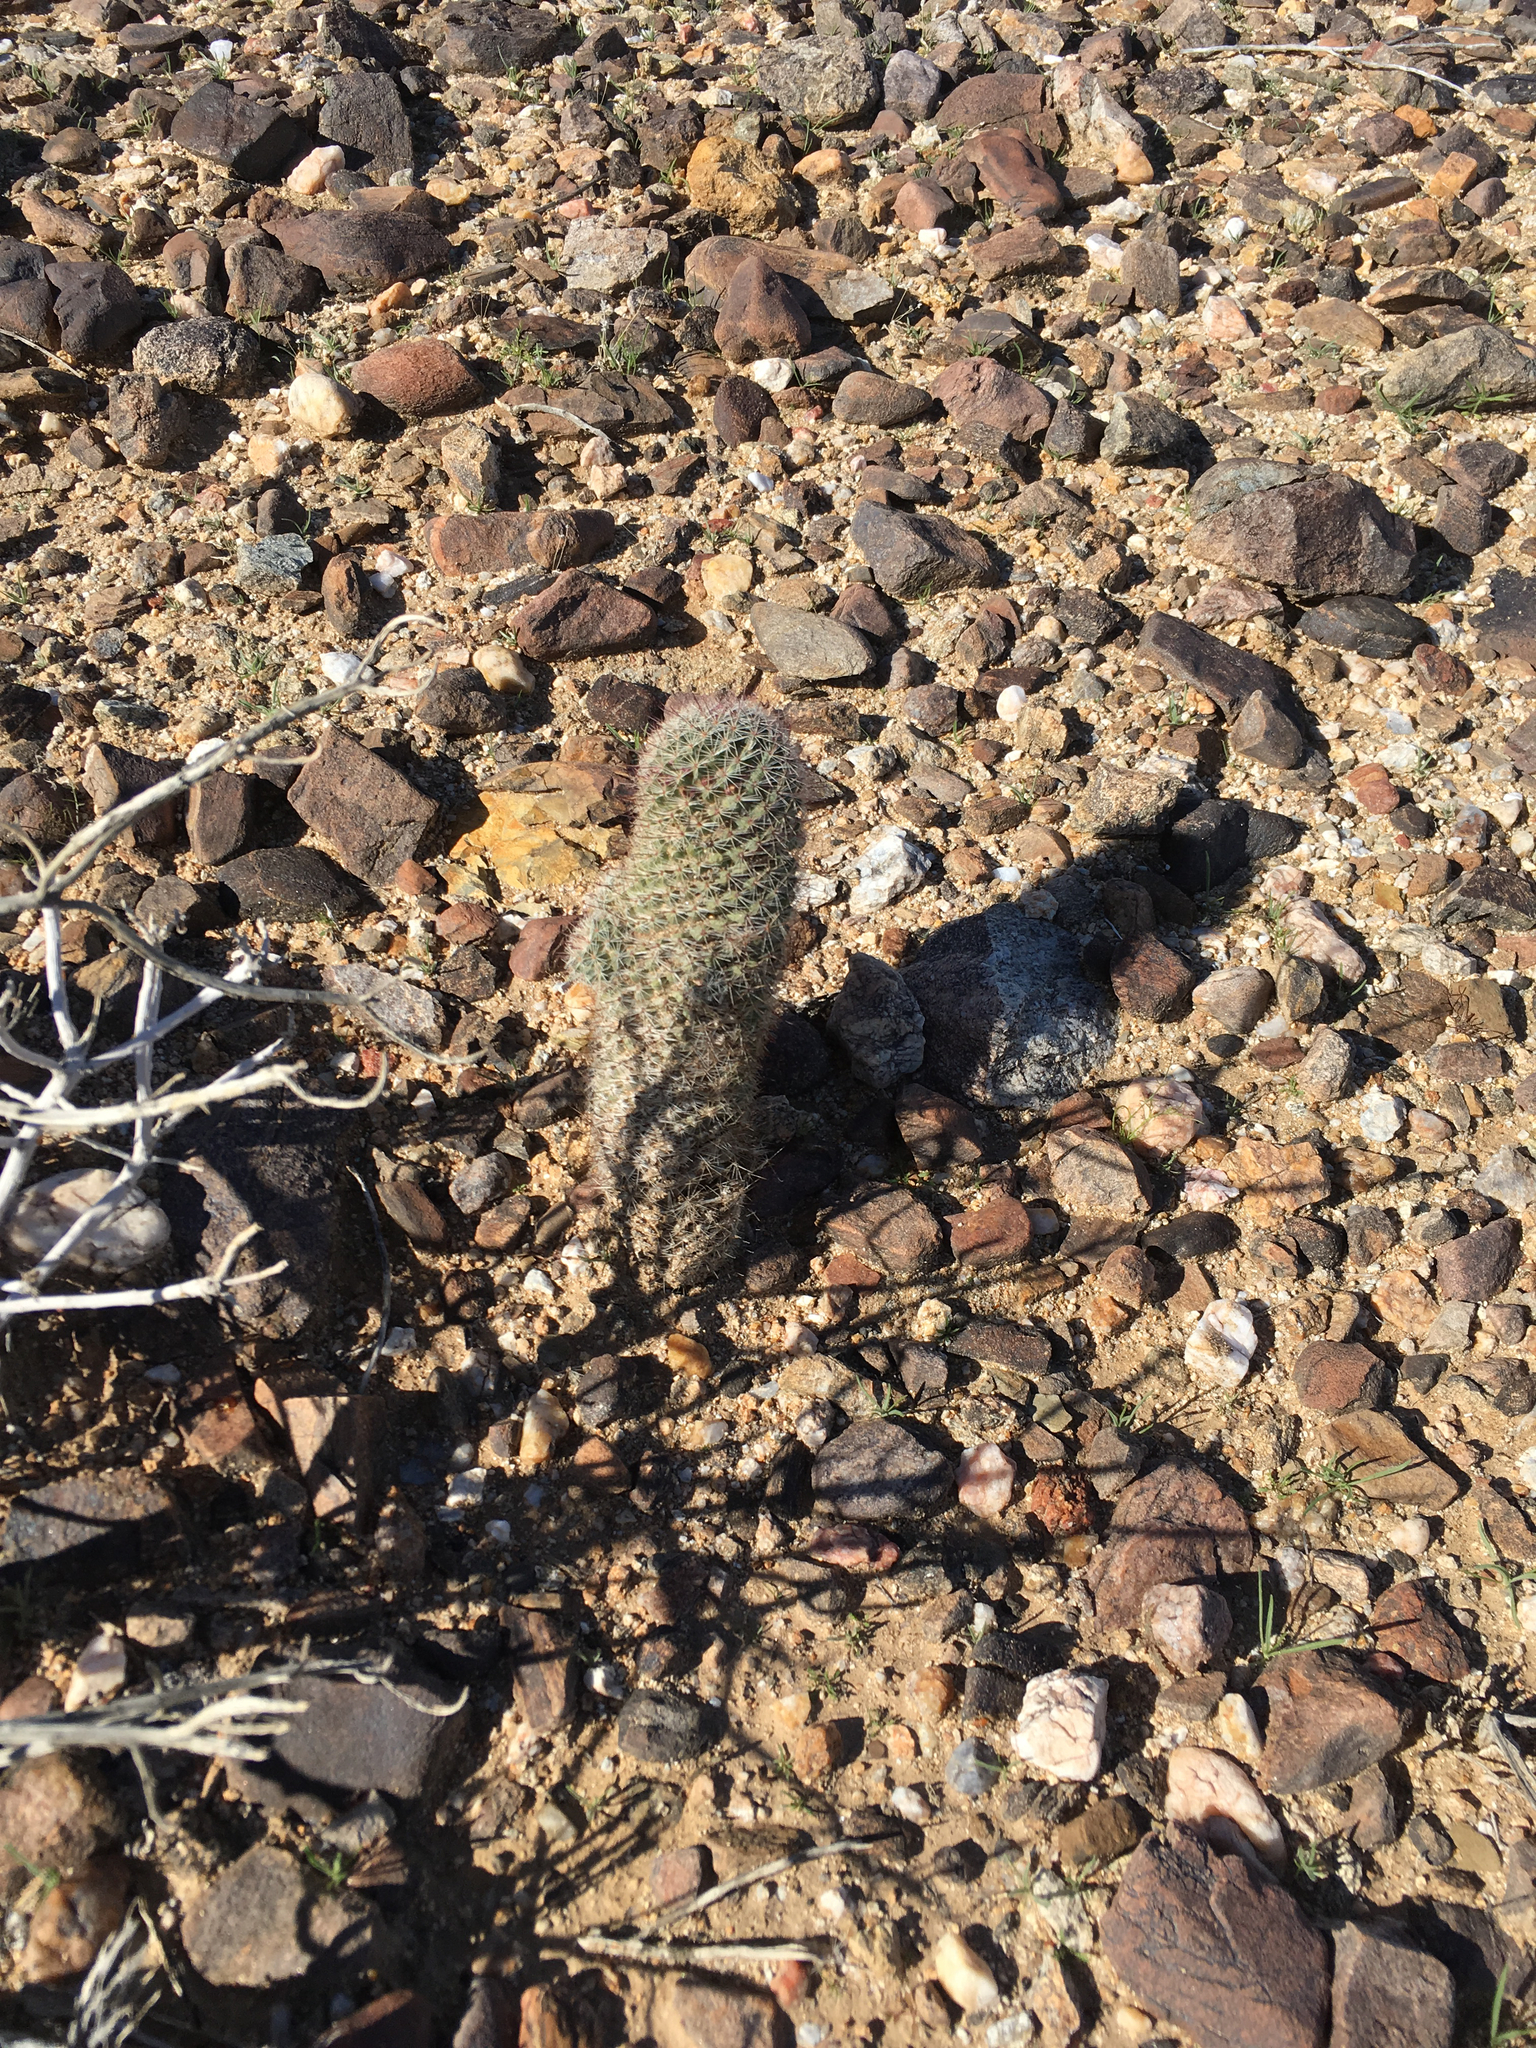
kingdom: Plantae
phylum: Tracheophyta
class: Magnoliopsida
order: Caryophyllales
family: Cactaceae
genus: Cochemiea
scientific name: Cochemiea dioica
